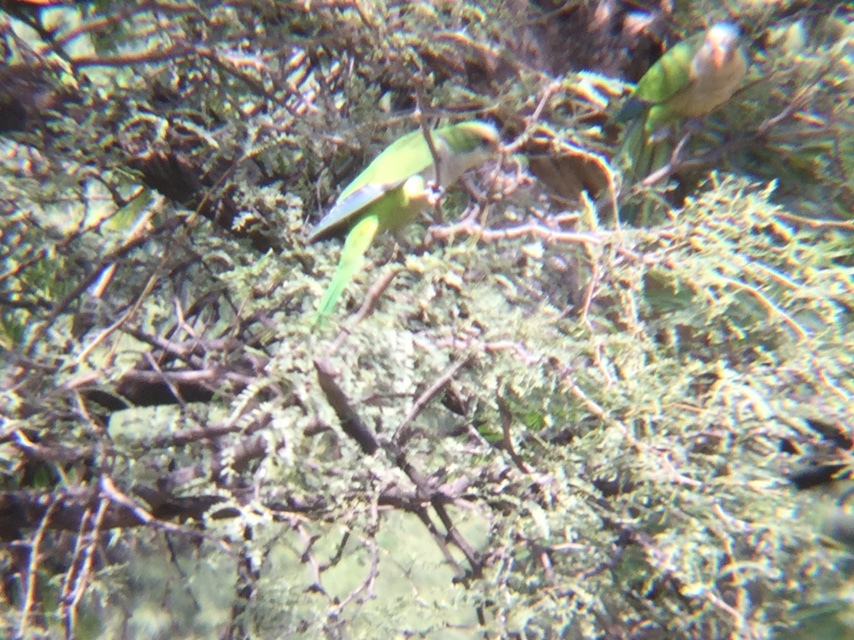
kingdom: Animalia
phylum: Chordata
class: Aves
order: Psittaciformes
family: Psittacidae
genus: Myiopsitta
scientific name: Myiopsitta monachus
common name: Monk parakeet
